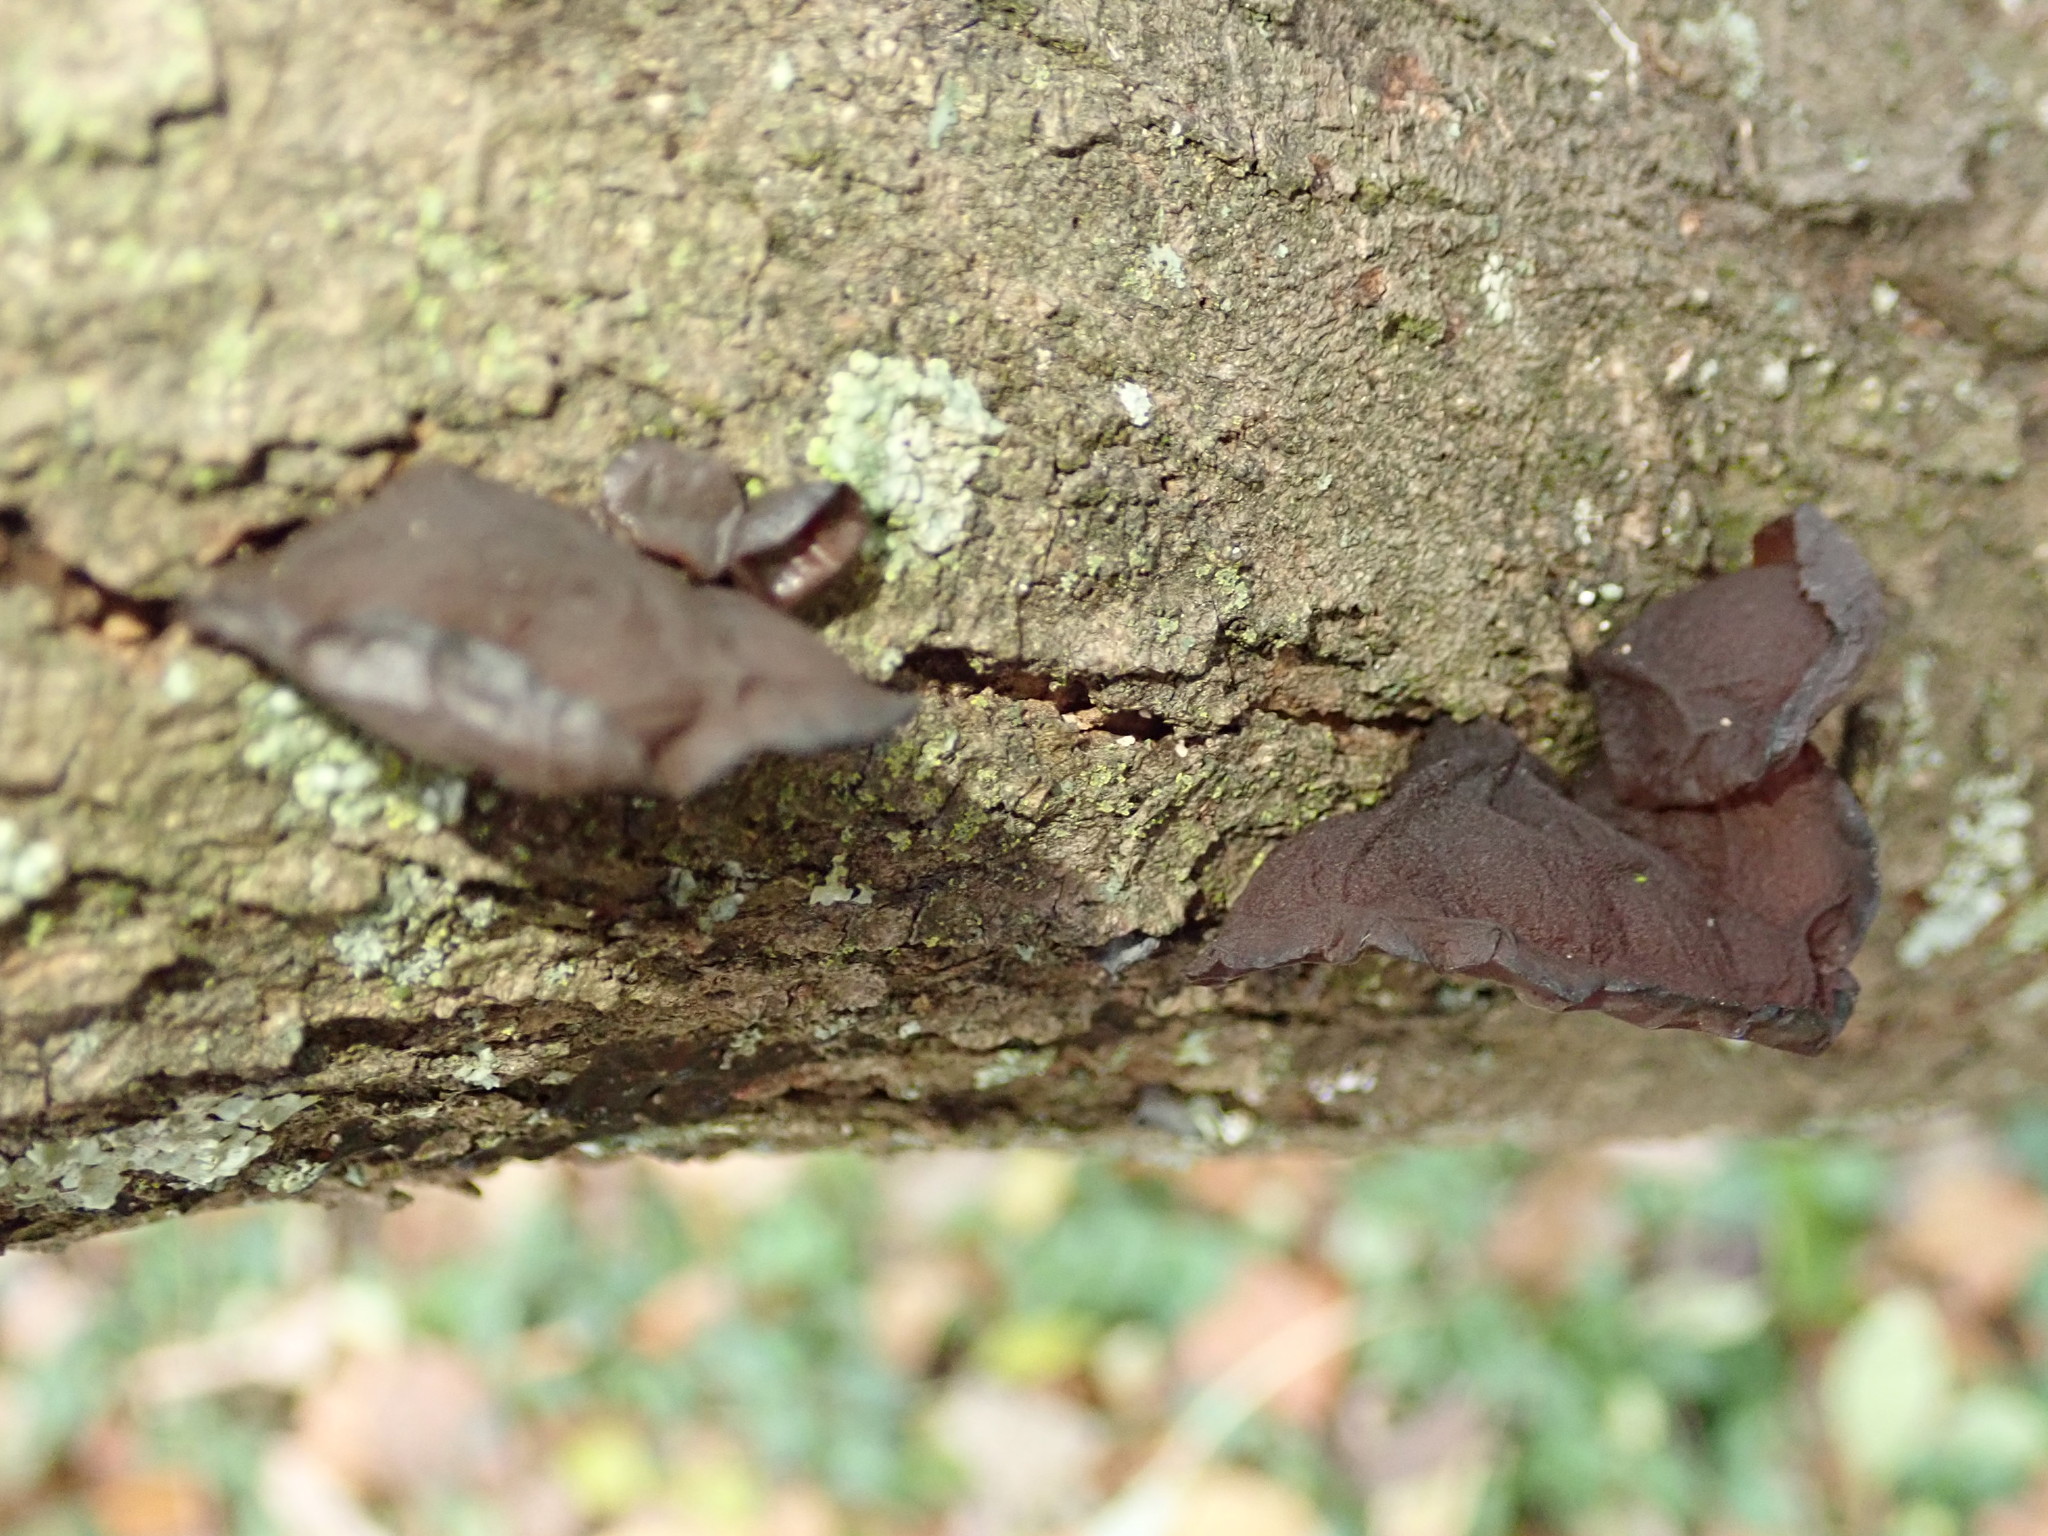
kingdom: Fungi
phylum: Basidiomycota
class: Agaricomycetes
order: Auriculariales
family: Auriculariaceae
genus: Exidia
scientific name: Exidia
